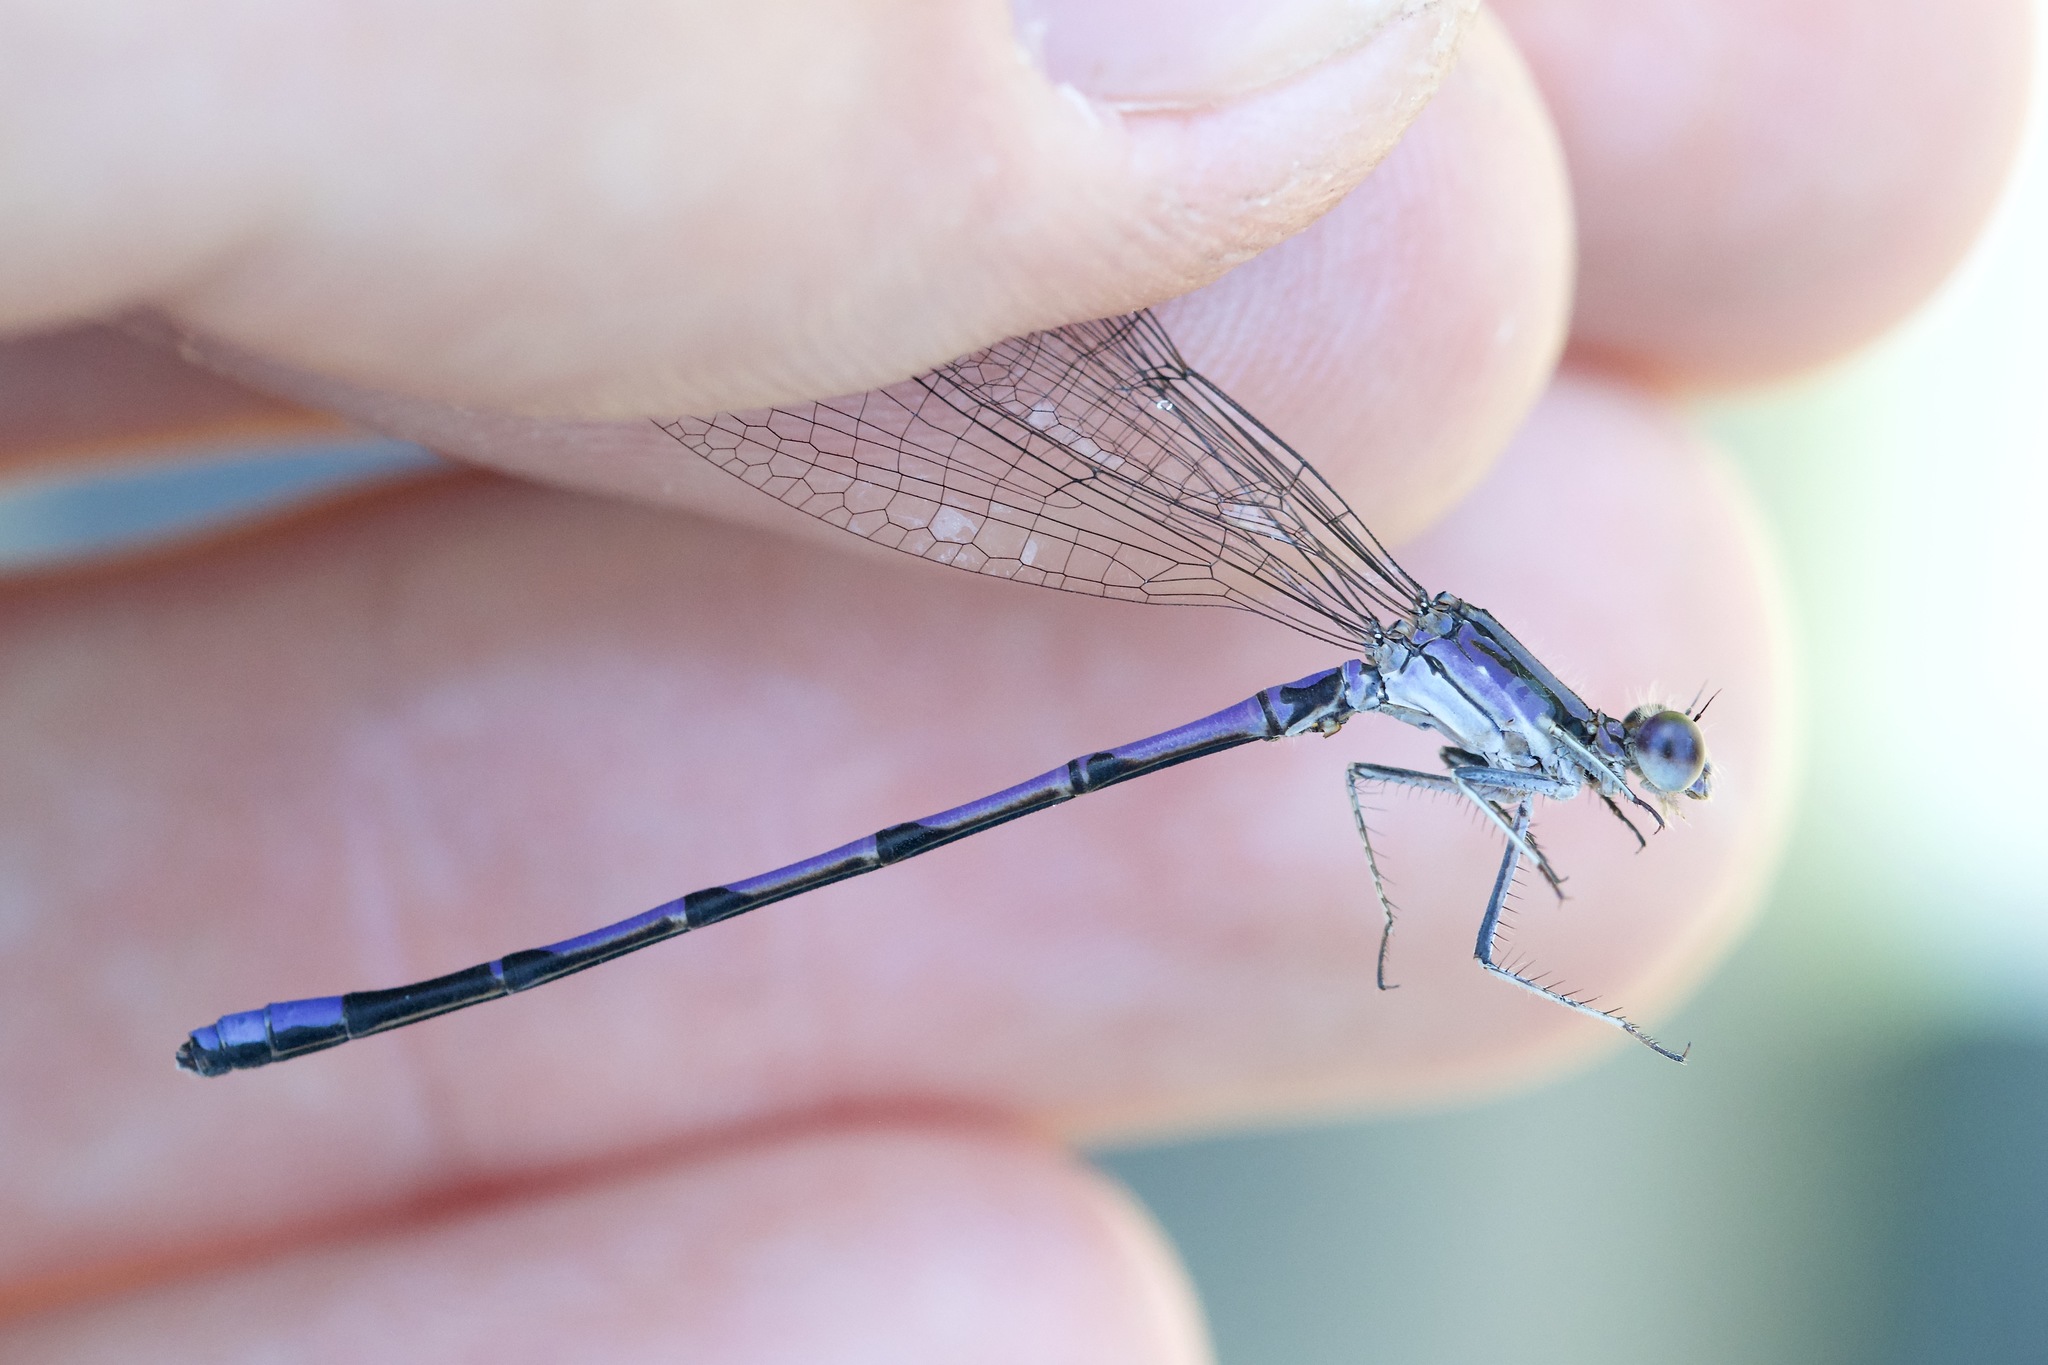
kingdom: Animalia
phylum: Arthropoda
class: Insecta
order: Odonata
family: Coenagrionidae
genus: Argia
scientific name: Argia fumipennis
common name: Variable dancer
